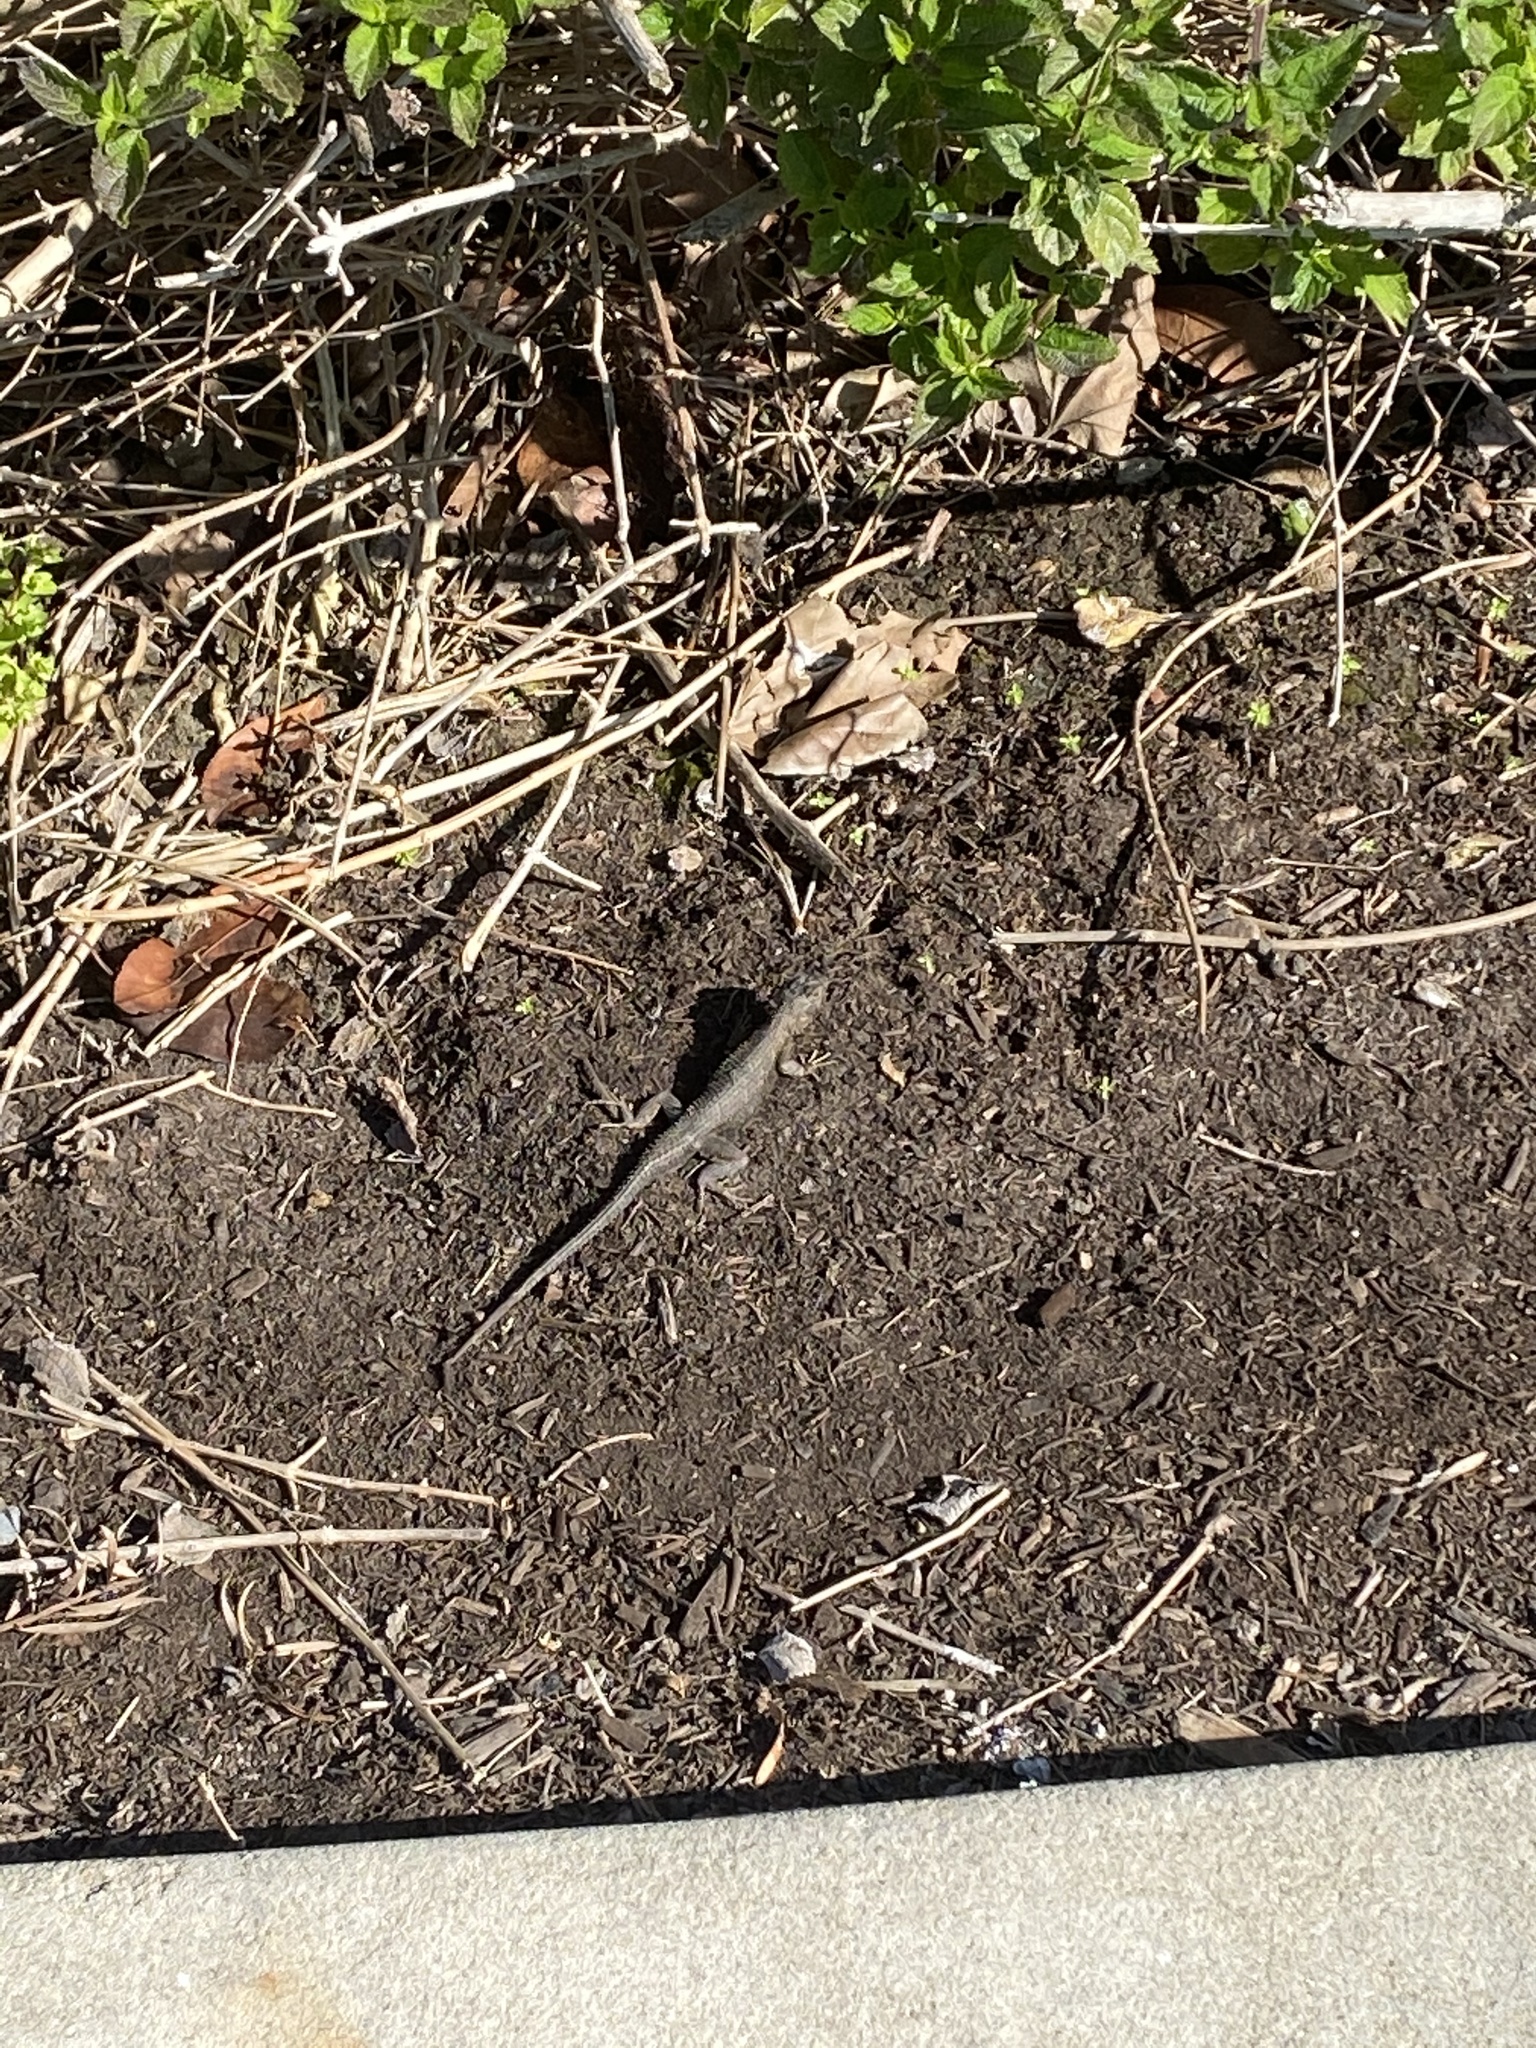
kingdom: Animalia
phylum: Chordata
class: Squamata
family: Phrynosomatidae
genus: Sceloporus
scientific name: Sceloporus occidentalis
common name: Western fence lizard
